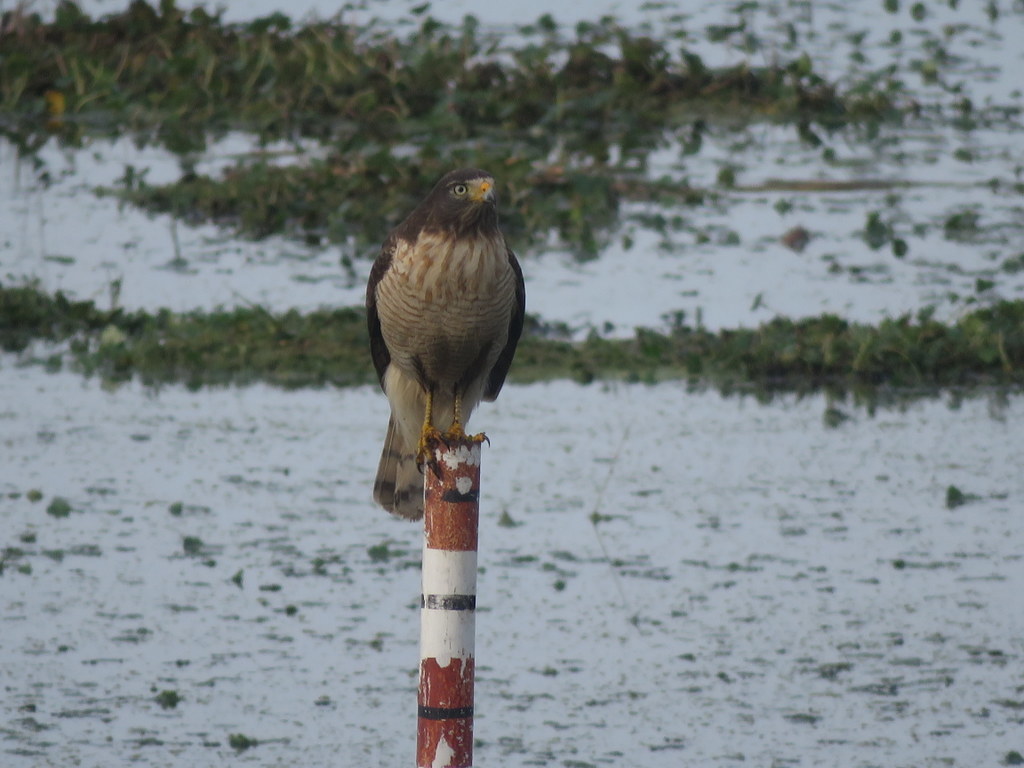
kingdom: Animalia
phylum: Chordata
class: Aves
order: Accipitriformes
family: Accipitridae
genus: Rupornis
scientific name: Rupornis magnirostris
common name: Roadside hawk
